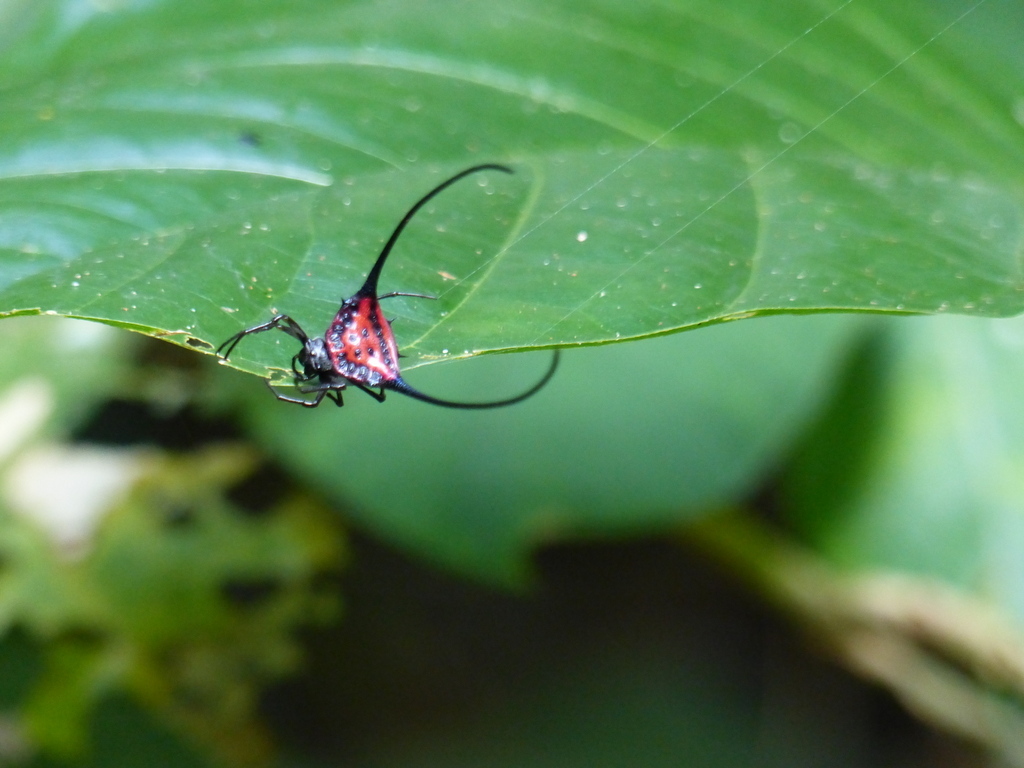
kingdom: Animalia
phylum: Arthropoda
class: Arachnida
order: Araneae
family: Araneidae
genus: Macracantha
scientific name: Macracantha arcuata
